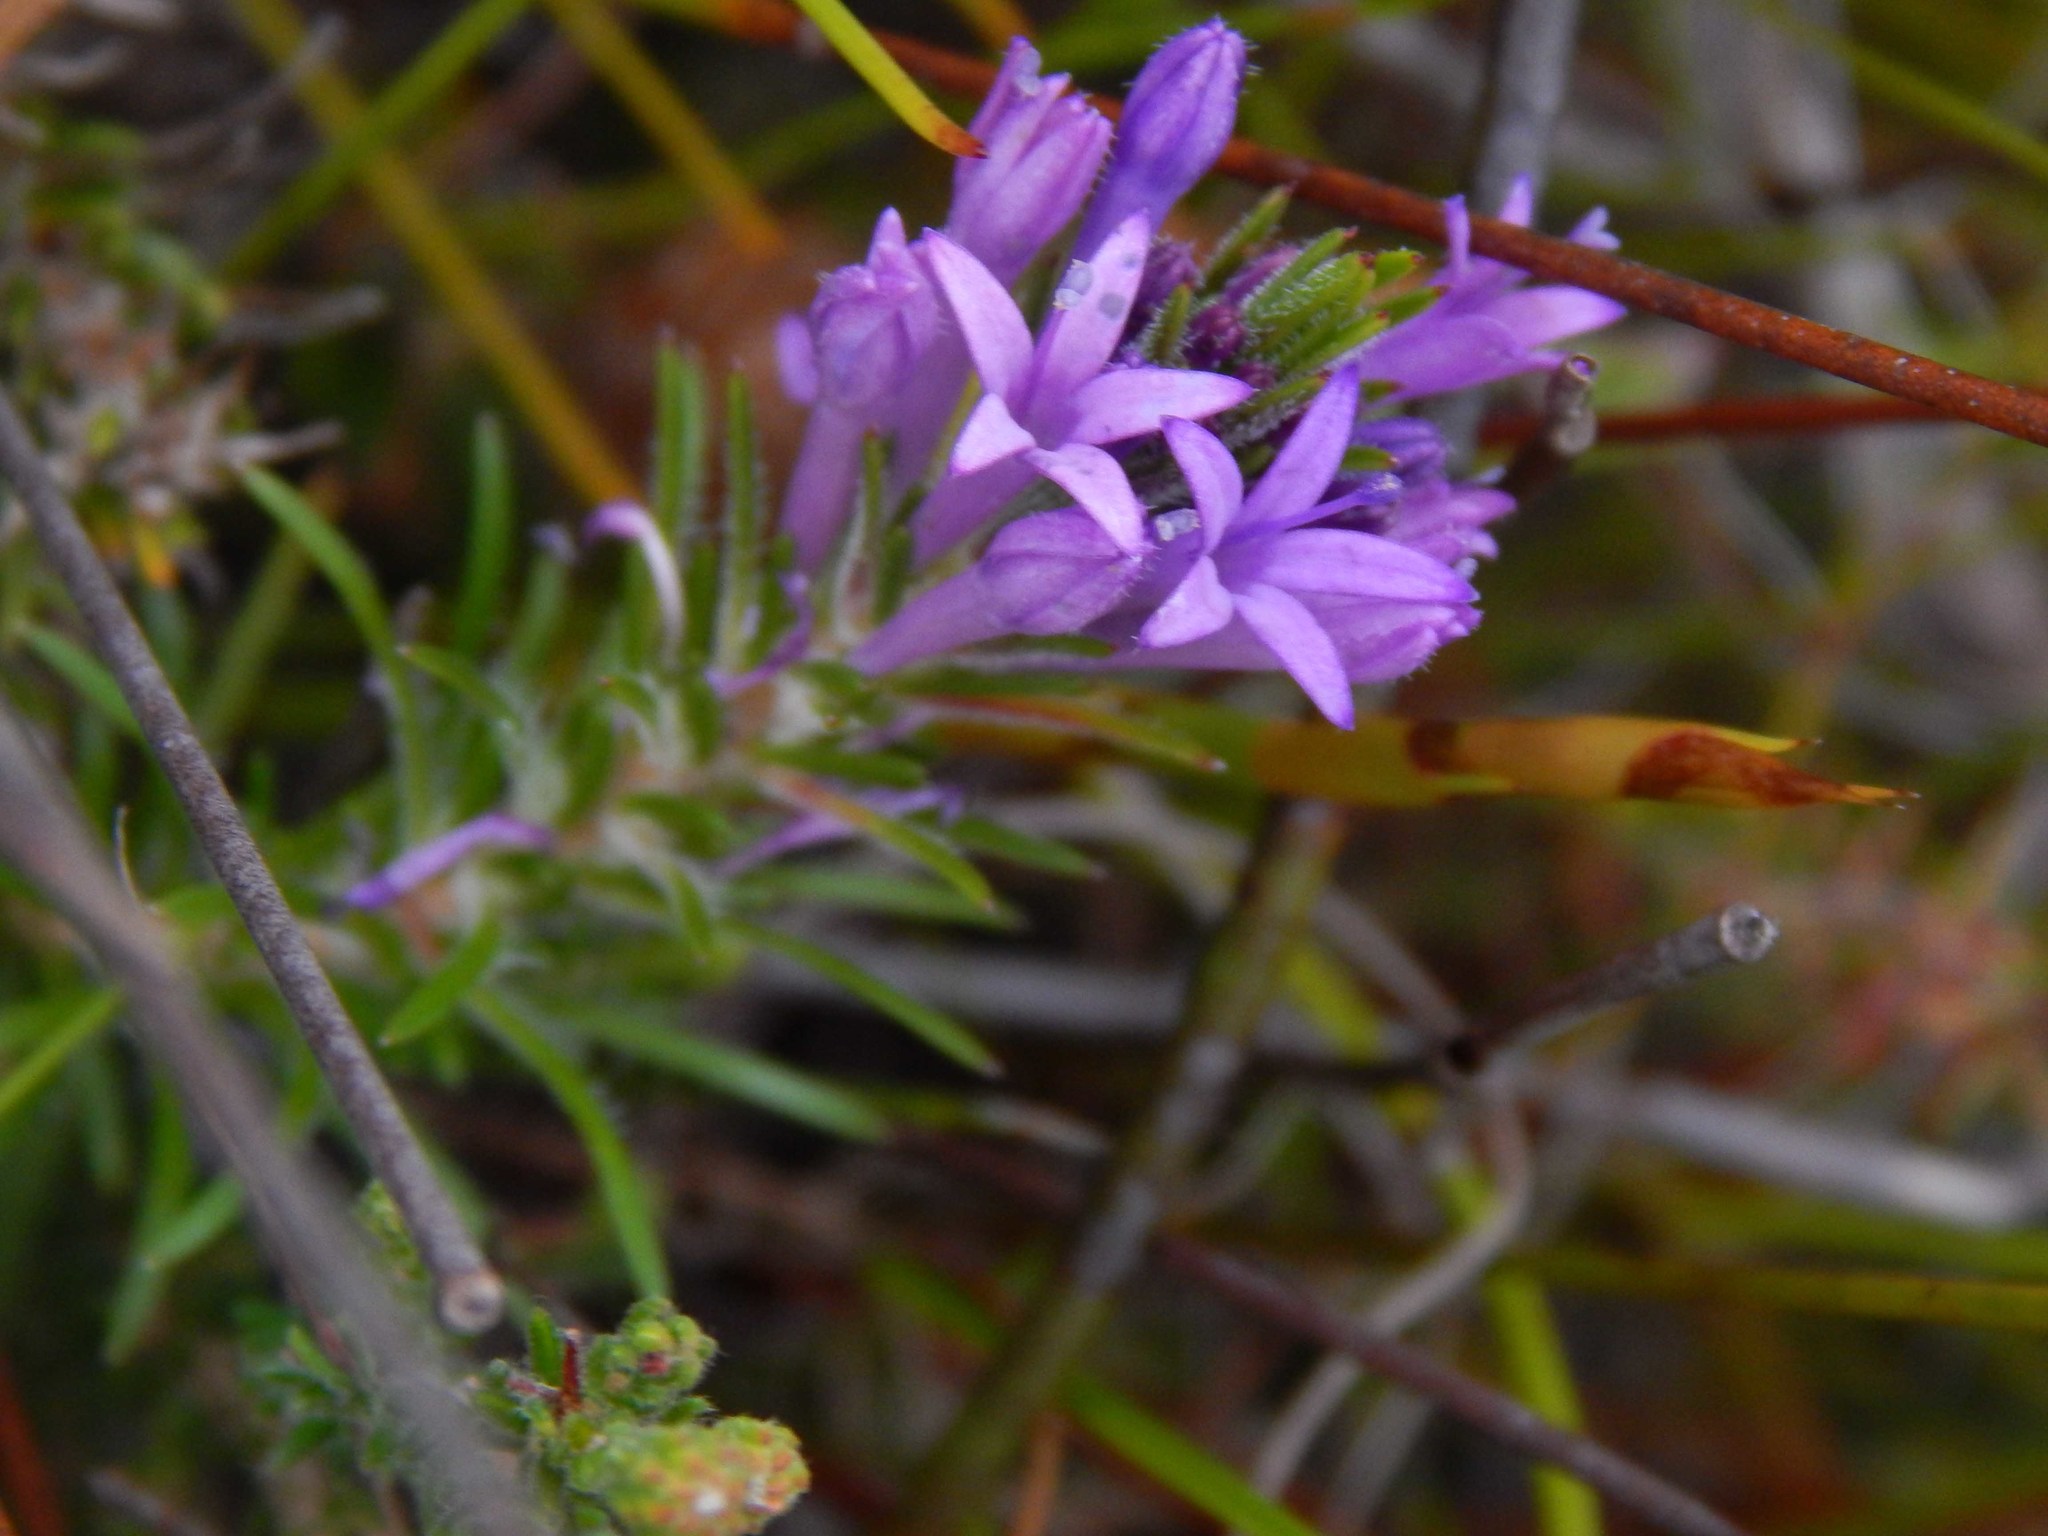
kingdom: Plantae
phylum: Tracheophyta
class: Magnoliopsida
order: Asterales
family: Campanulaceae
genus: Merciera
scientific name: Merciera azurea
